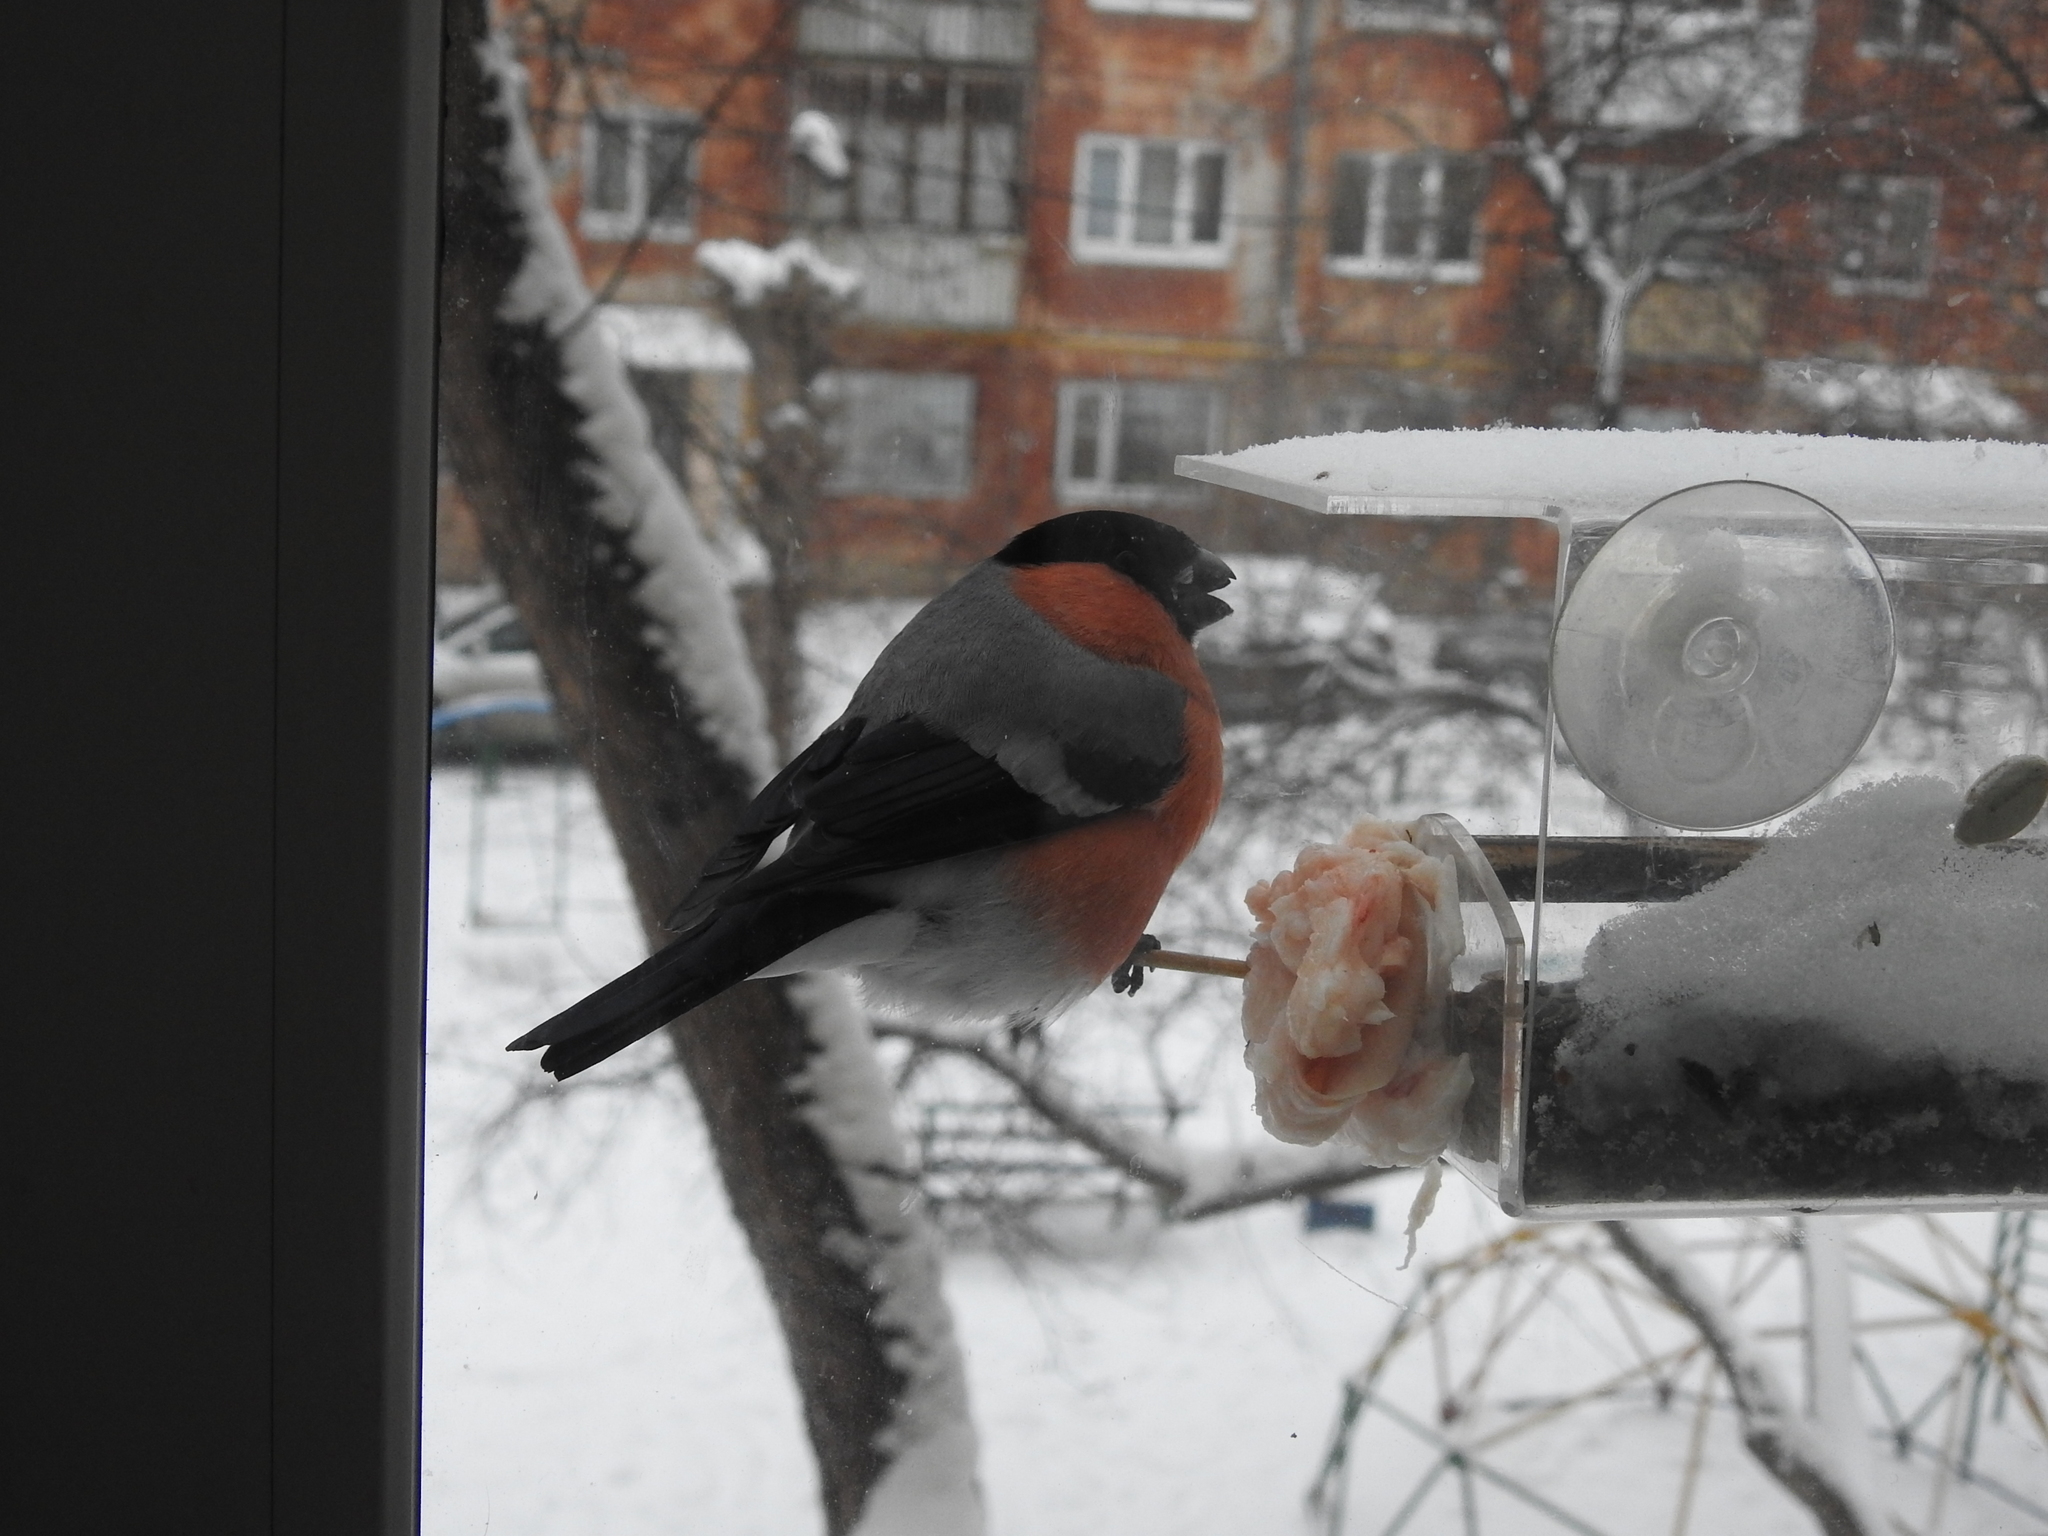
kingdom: Animalia
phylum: Chordata
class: Aves
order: Passeriformes
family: Fringillidae
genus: Pyrrhula
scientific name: Pyrrhula pyrrhula
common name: Eurasian bullfinch
